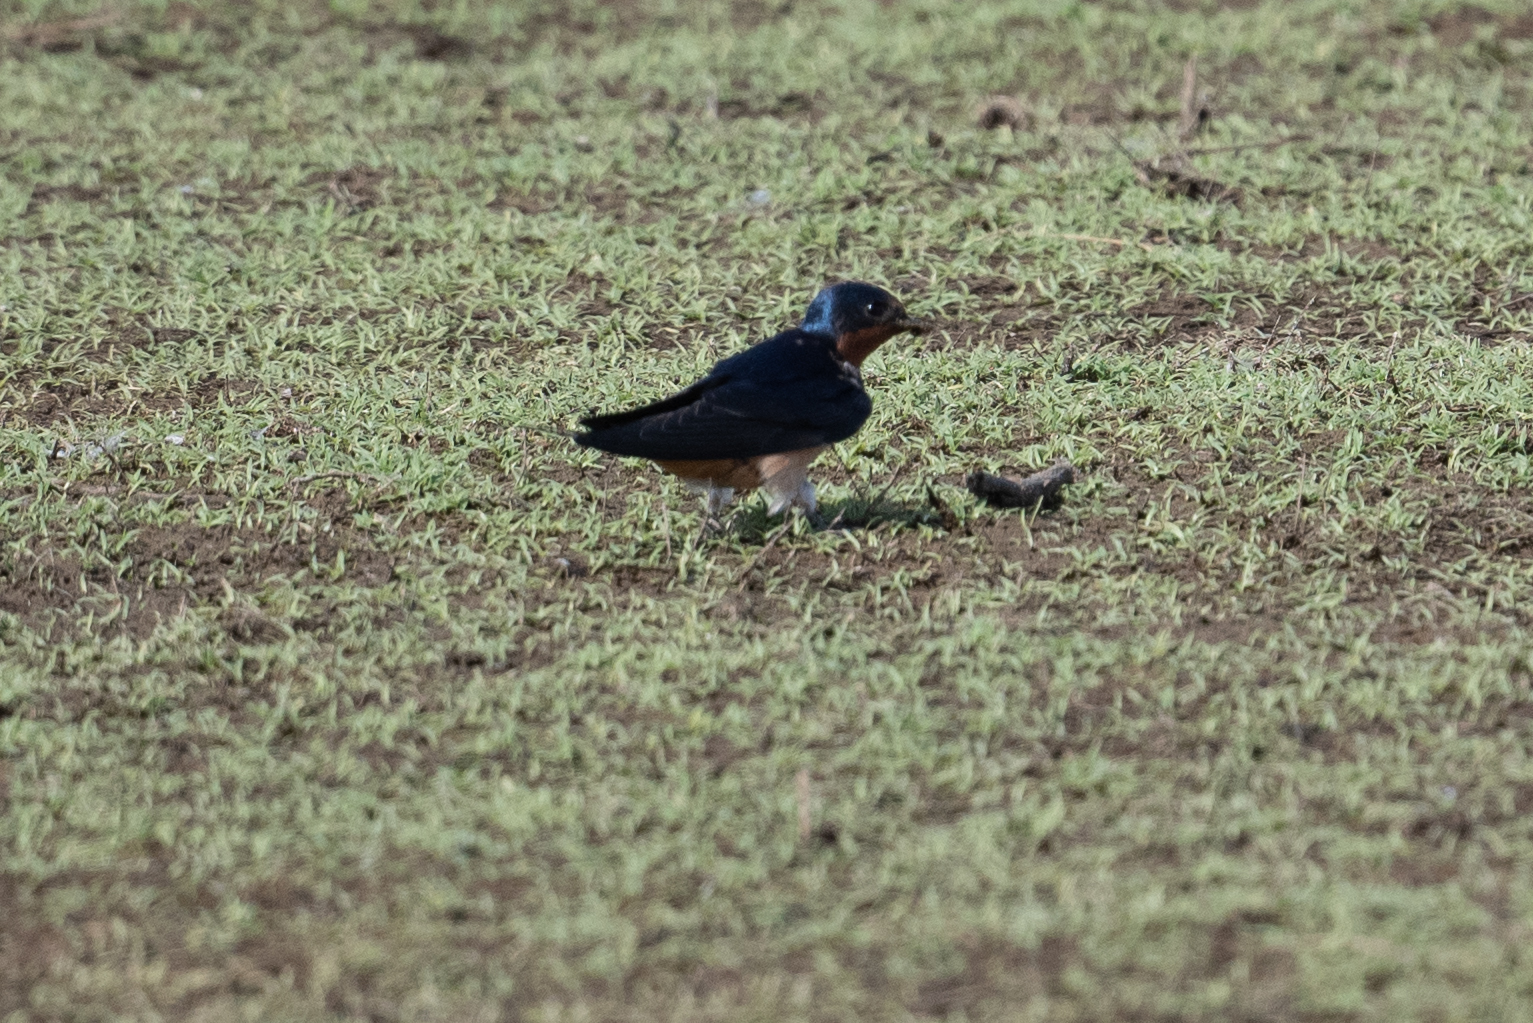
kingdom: Animalia
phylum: Chordata
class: Aves
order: Passeriformes
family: Hirundinidae
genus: Hirundo
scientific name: Hirundo rustica
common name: Barn swallow
